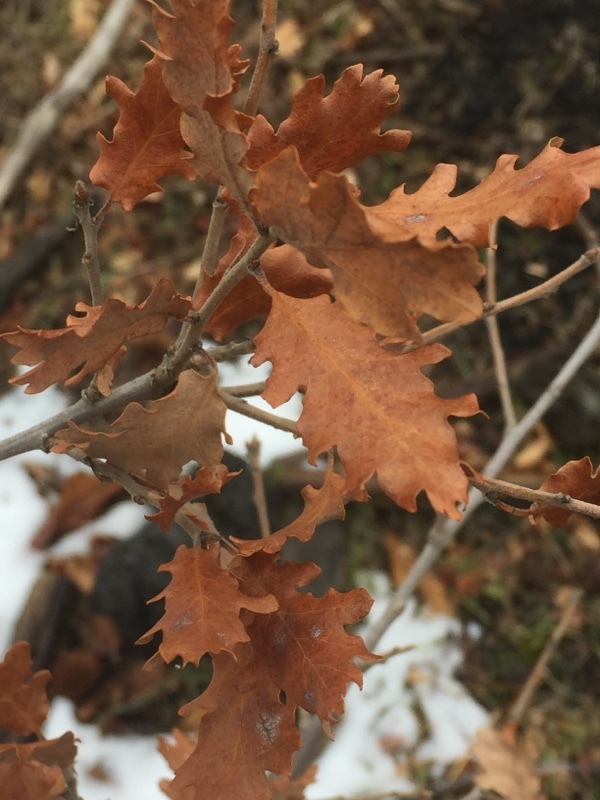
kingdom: Plantae
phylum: Tracheophyta
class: Magnoliopsida
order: Fagales
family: Fagaceae
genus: Quercus
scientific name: Quercus cerris
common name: Turkey oak
